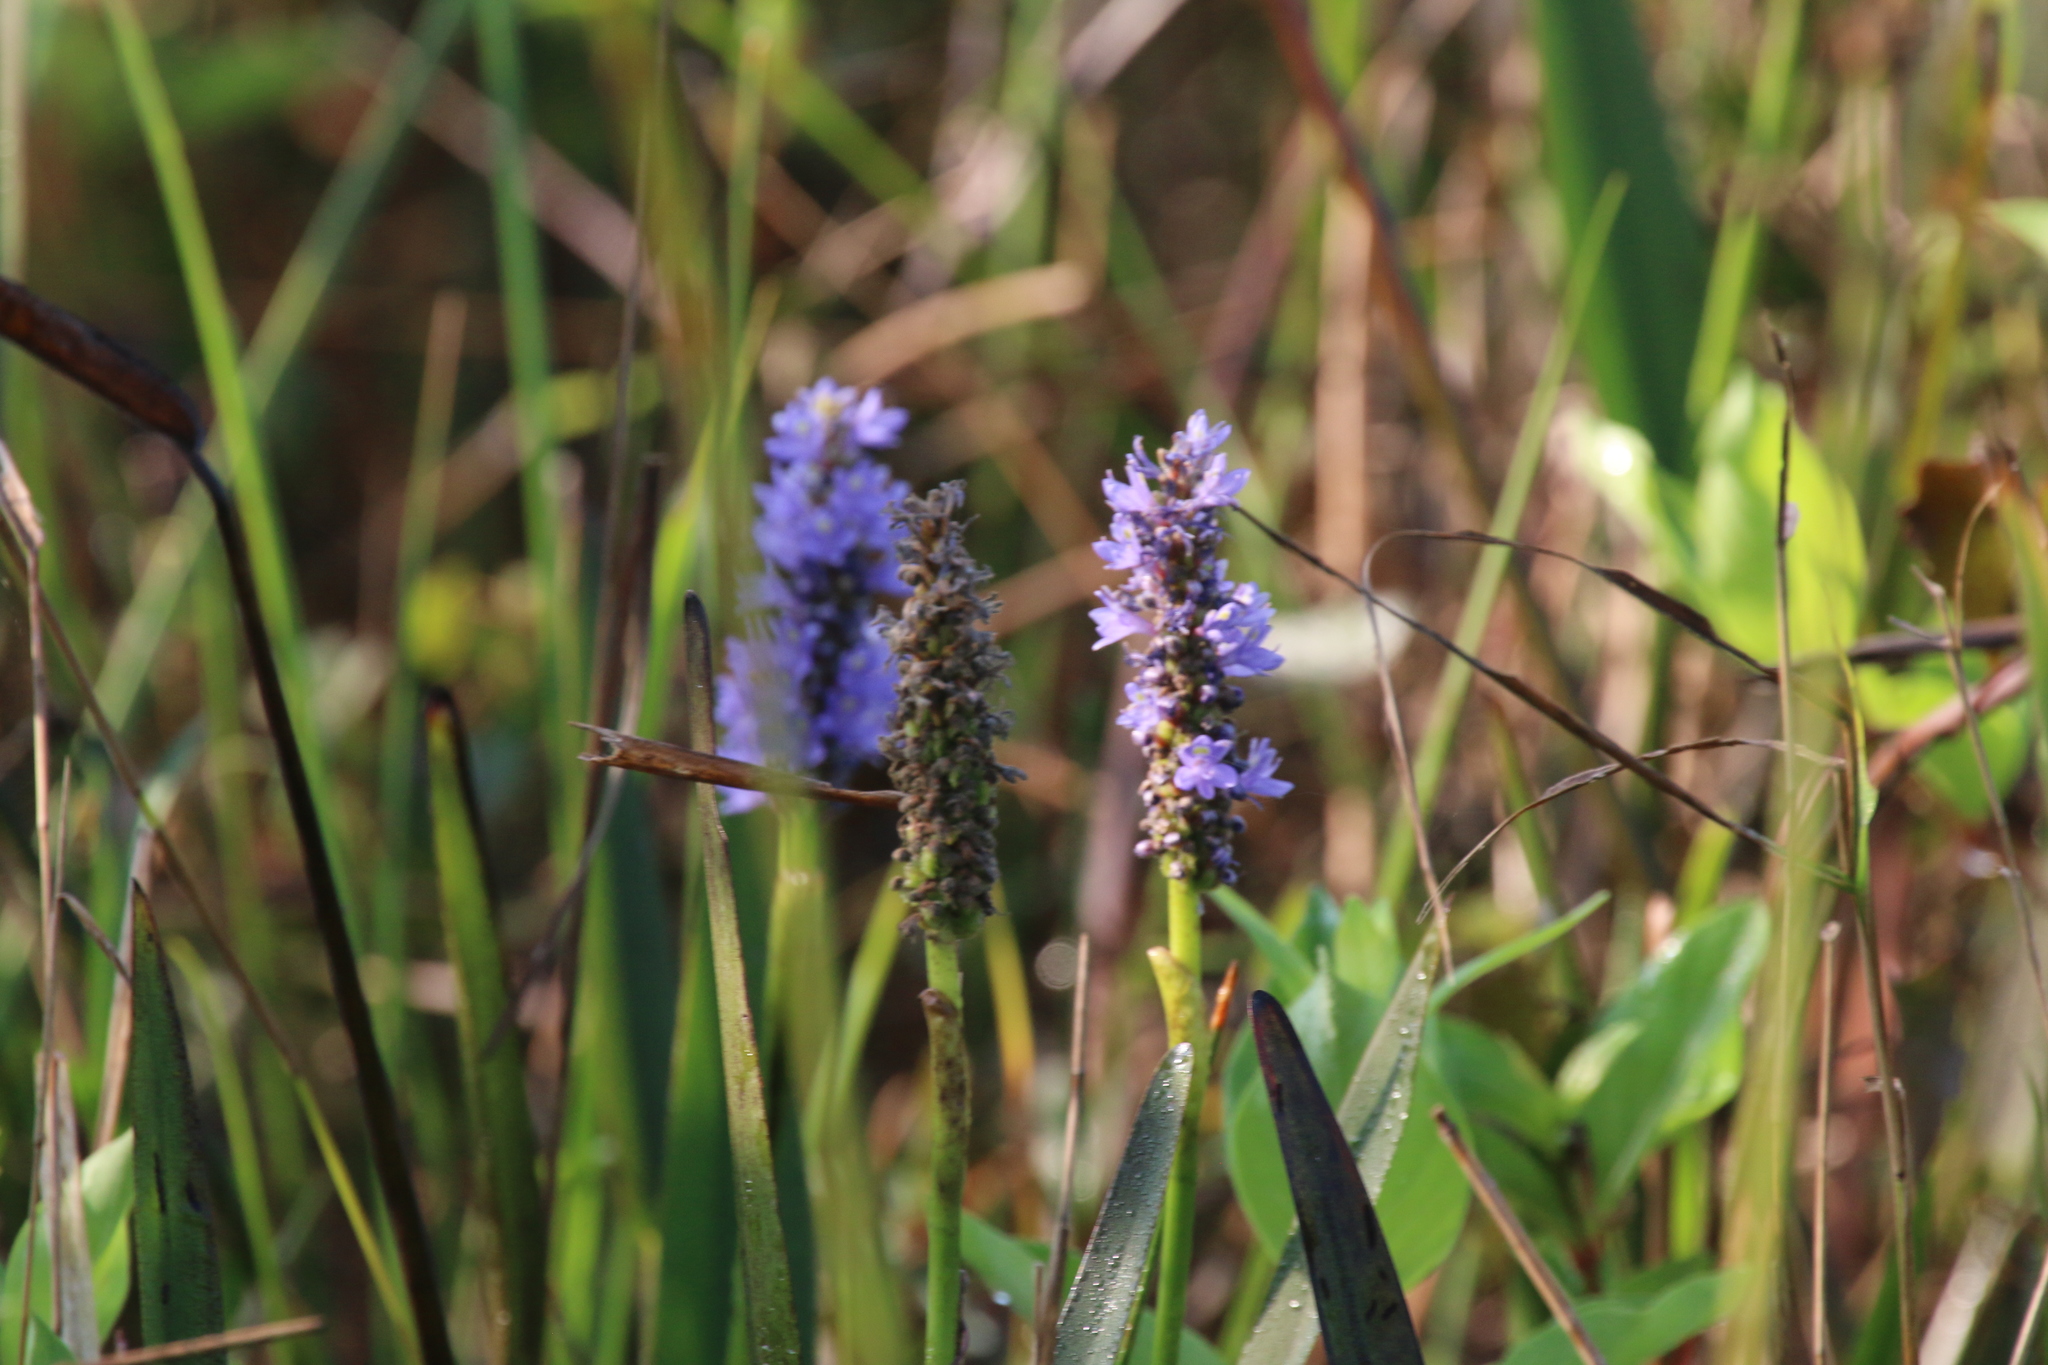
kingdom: Plantae
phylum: Tracheophyta
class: Liliopsida
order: Commelinales
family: Pontederiaceae
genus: Pontederia
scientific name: Pontederia cordata
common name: Pickerelweed
